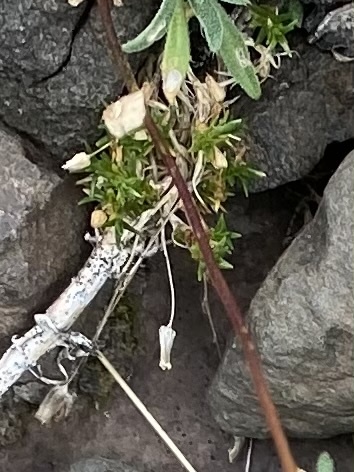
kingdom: Plantae
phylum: Tracheophyta
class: Magnoliopsida
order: Caryophyllales
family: Caryophyllaceae
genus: Sabulina
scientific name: Sabulina rubella
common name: Beautiful sandwort
